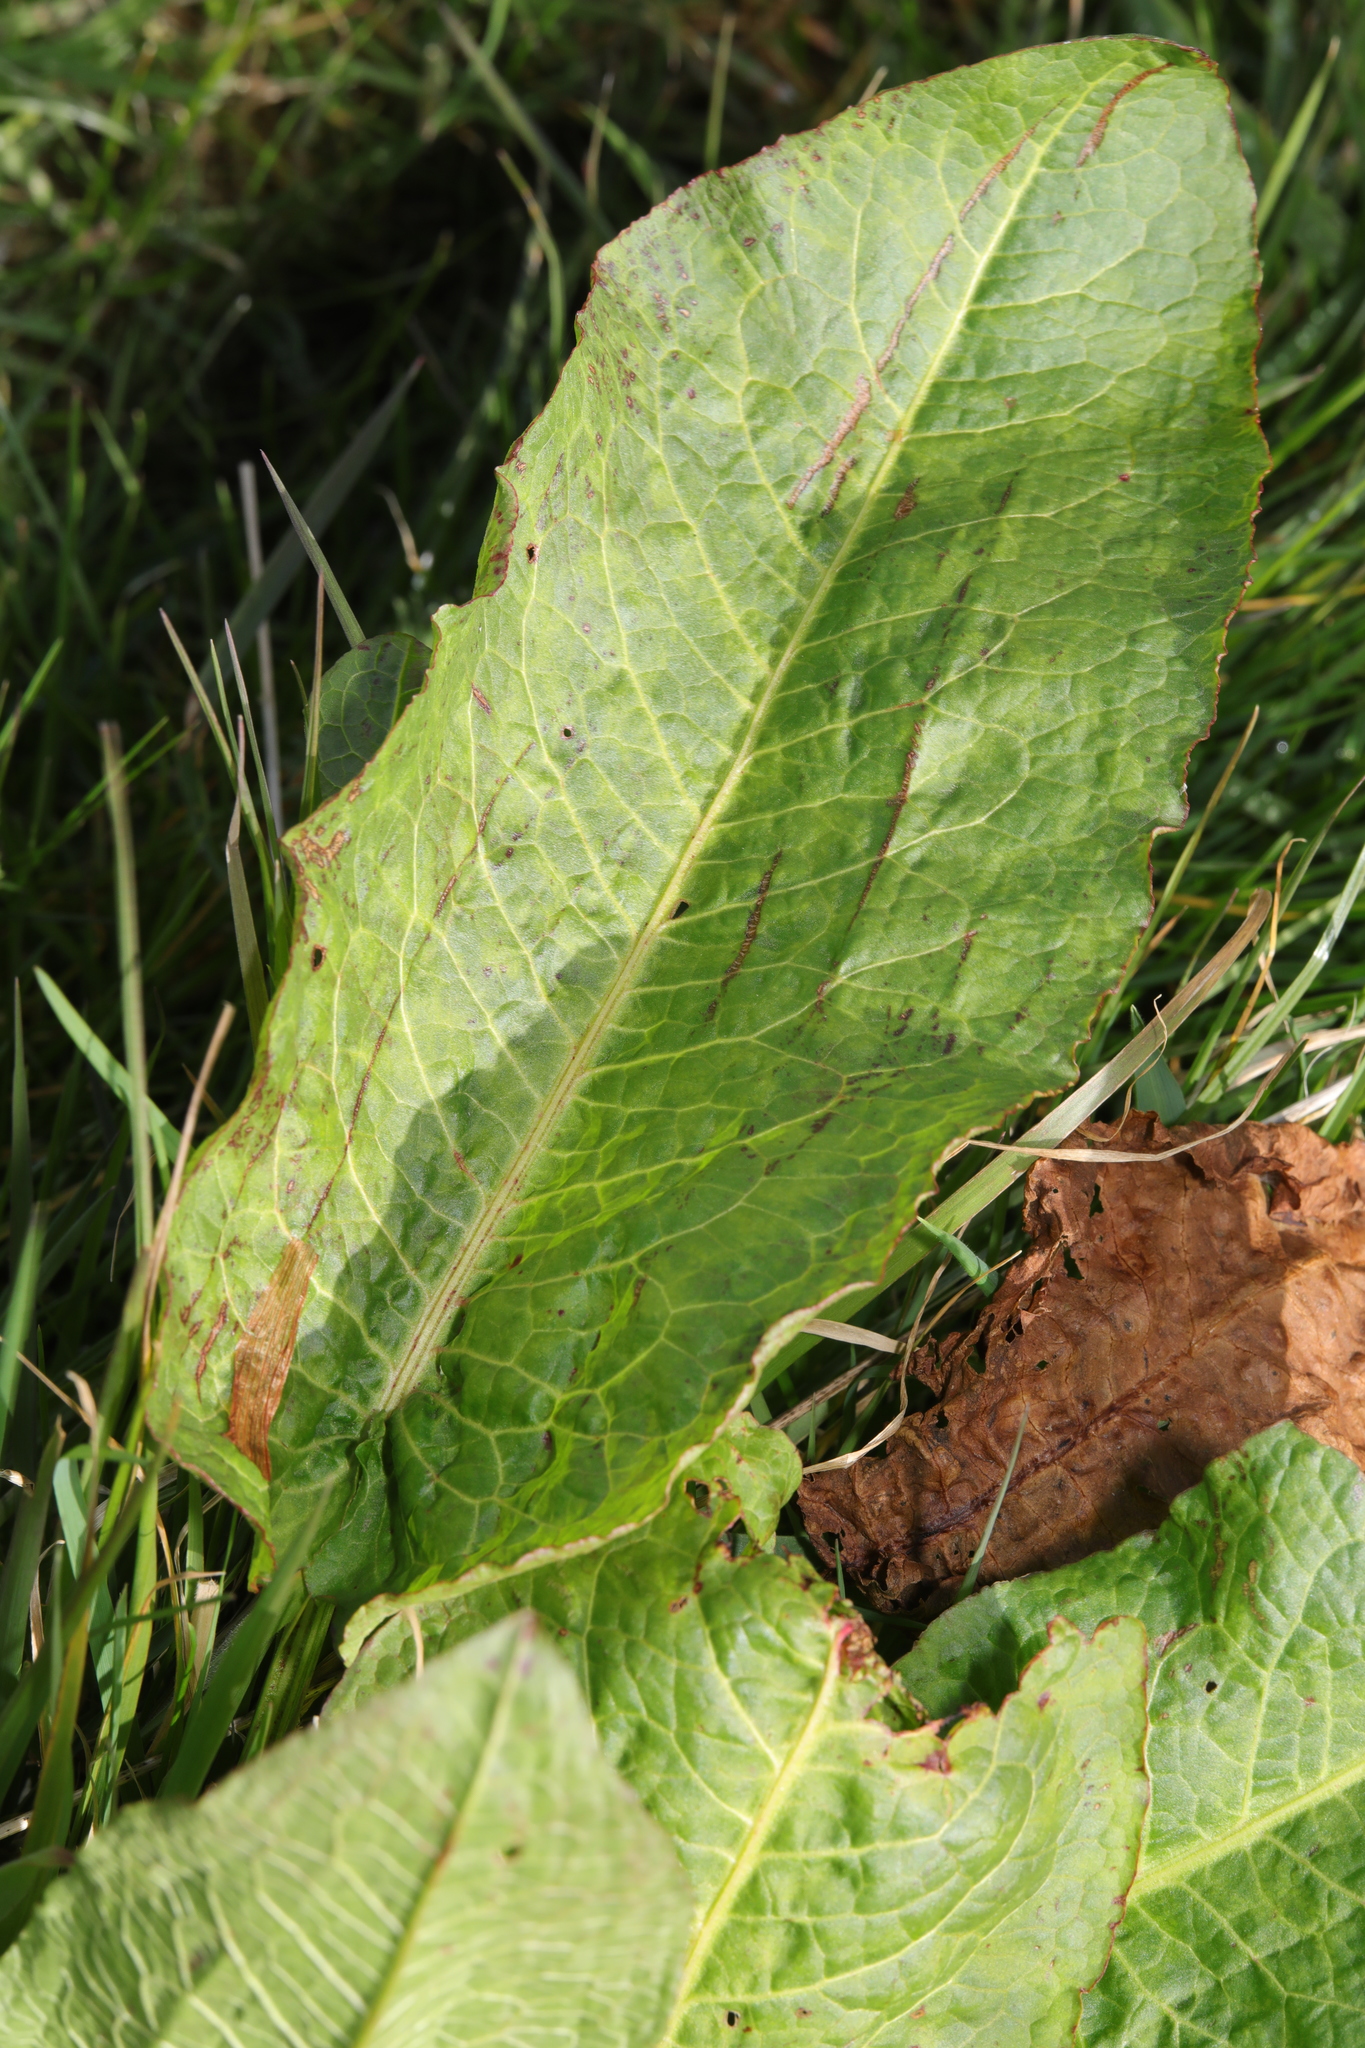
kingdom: Plantae
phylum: Tracheophyta
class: Magnoliopsida
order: Caryophyllales
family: Polygonaceae
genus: Rumex
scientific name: Rumex obtusifolius
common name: Bitter dock
